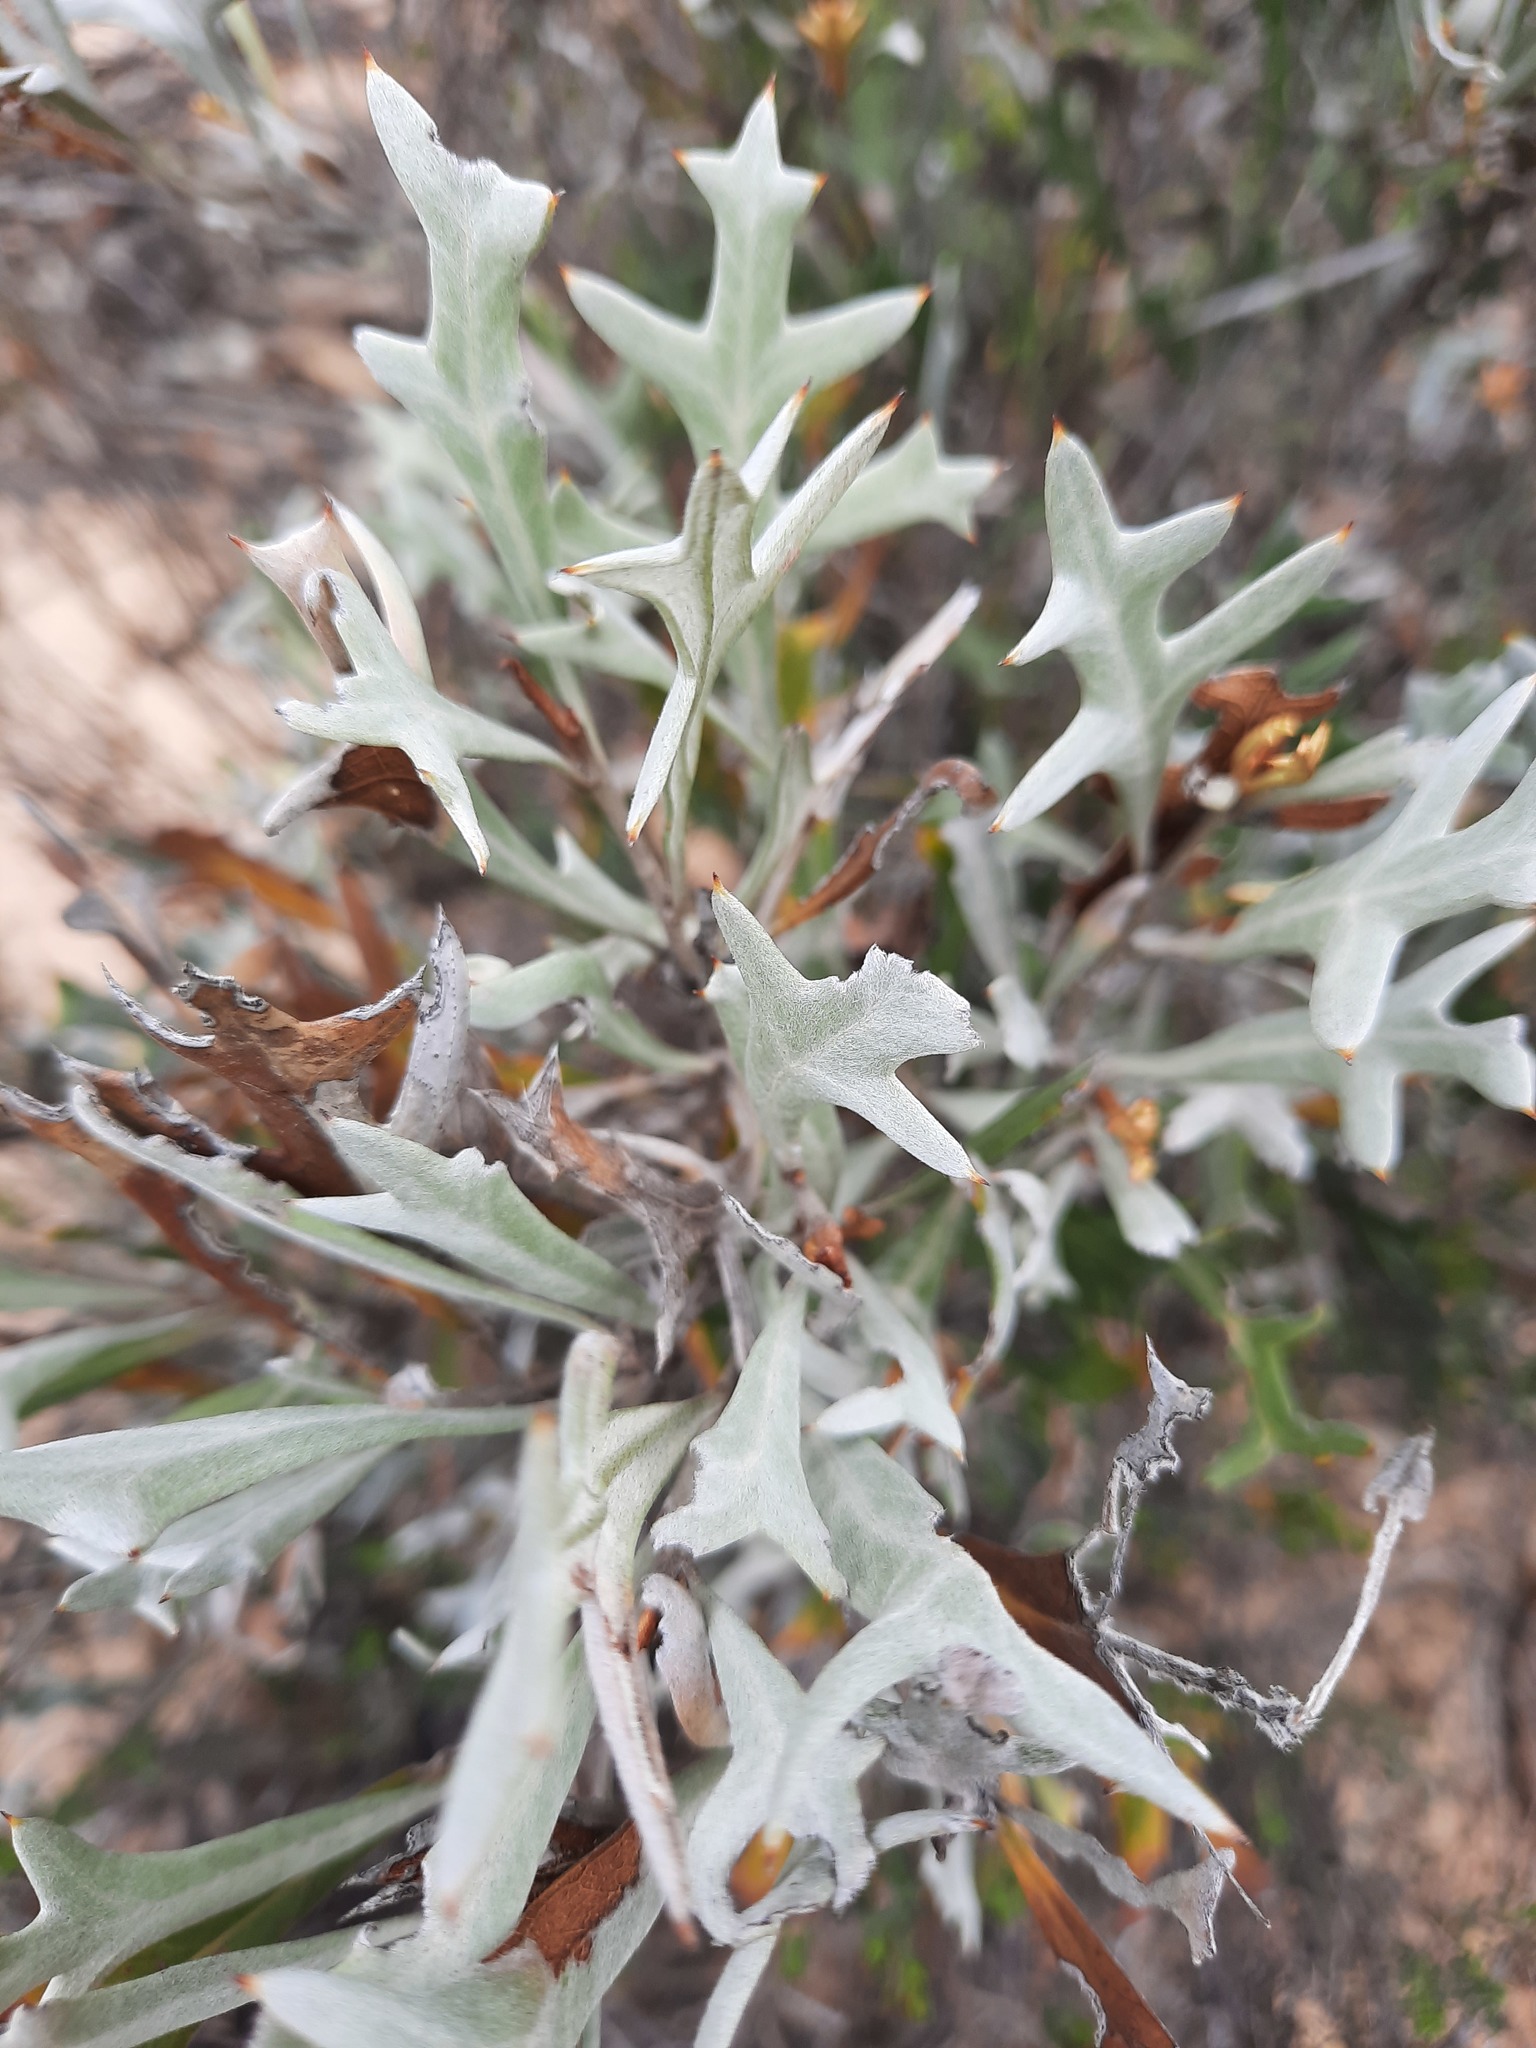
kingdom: Plantae
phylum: Tracheophyta
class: Magnoliopsida
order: Proteales
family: Proteaceae
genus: Grevillea
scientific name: Grevillea ilicifolia
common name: Holly grevillea
